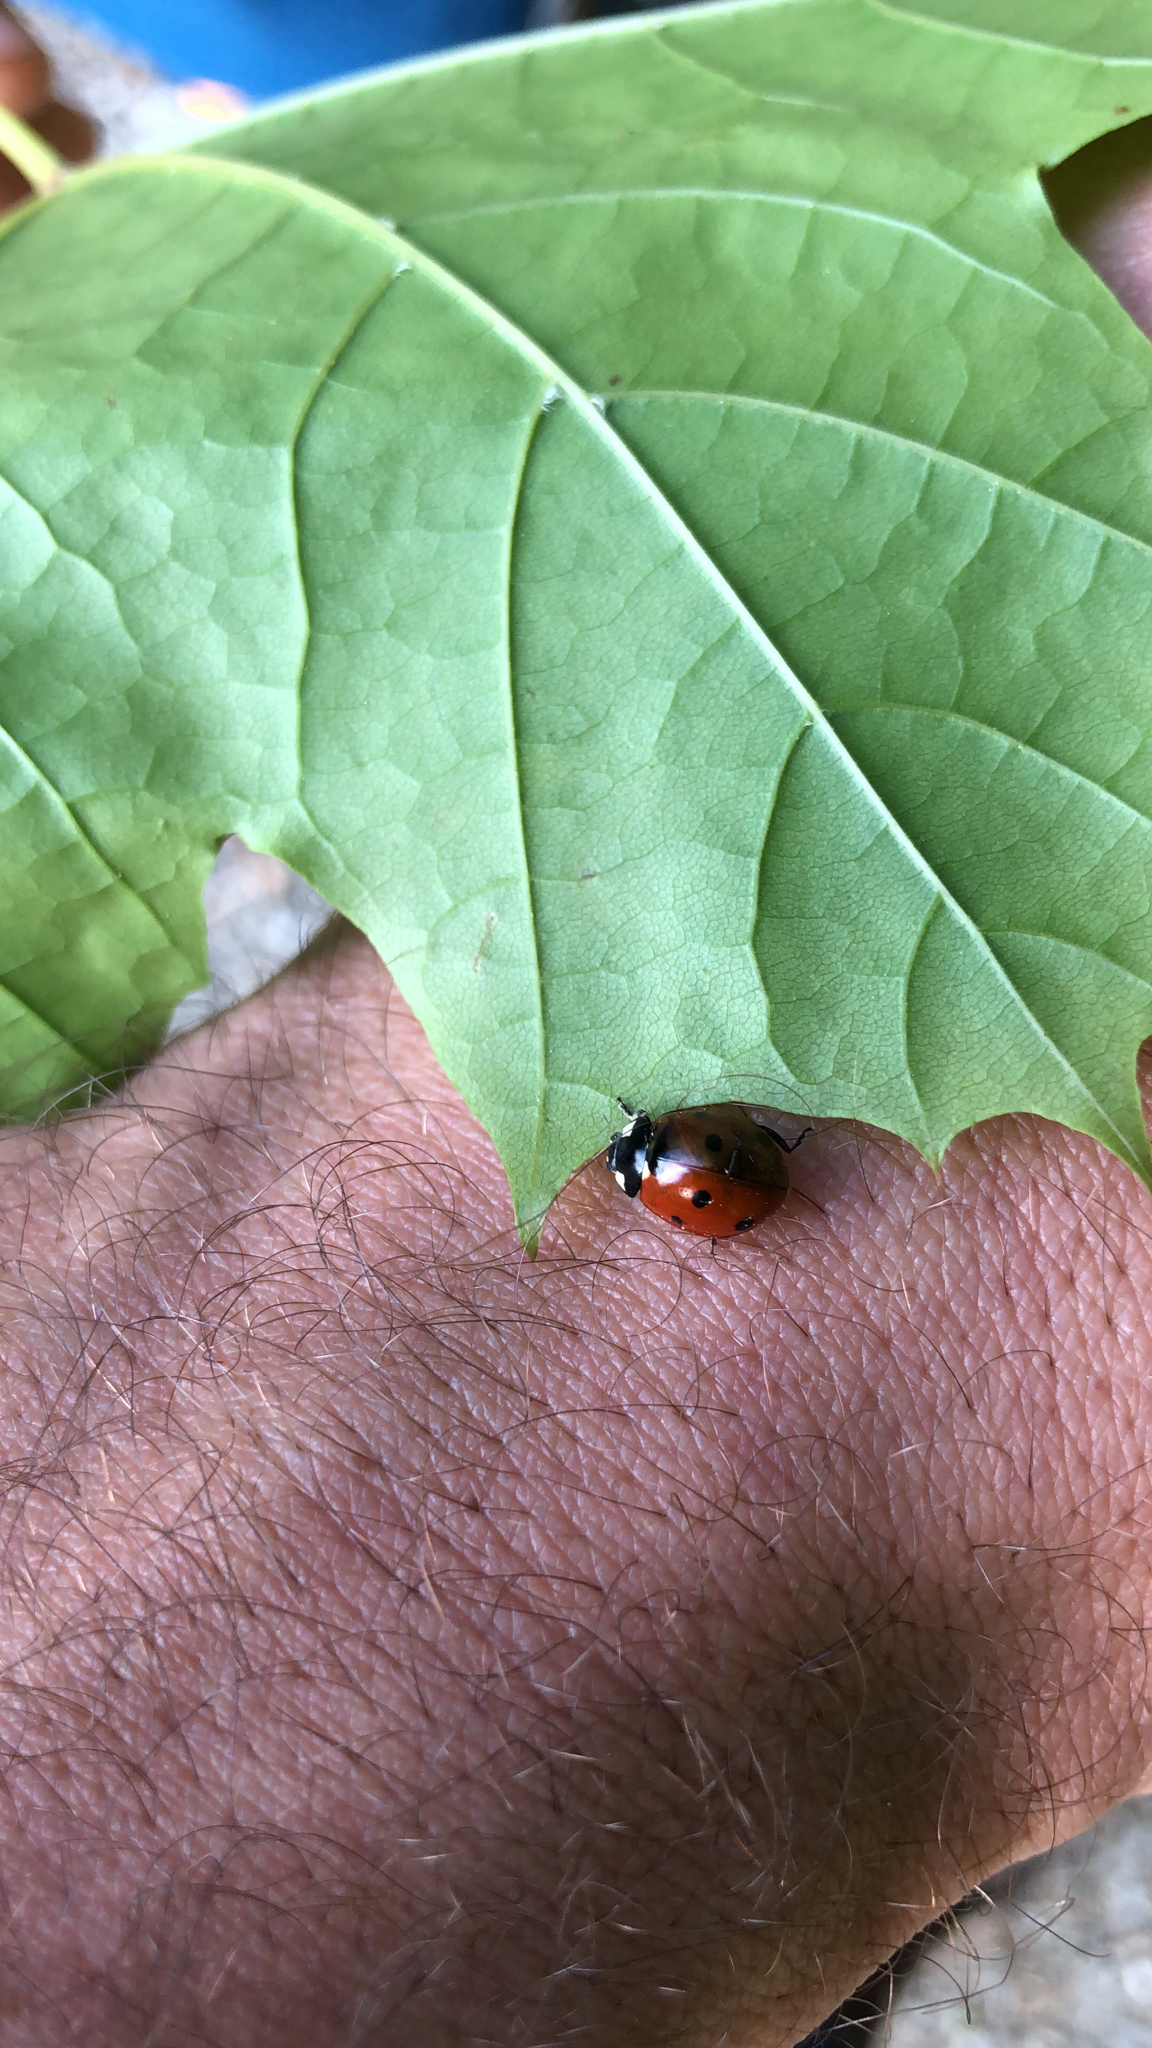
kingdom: Animalia
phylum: Arthropoda
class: Insecta
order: Coleoptera
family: Coccinellidae
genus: Coccinella
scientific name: Coccinella septempunctata
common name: Sevenspotted lady beetle
